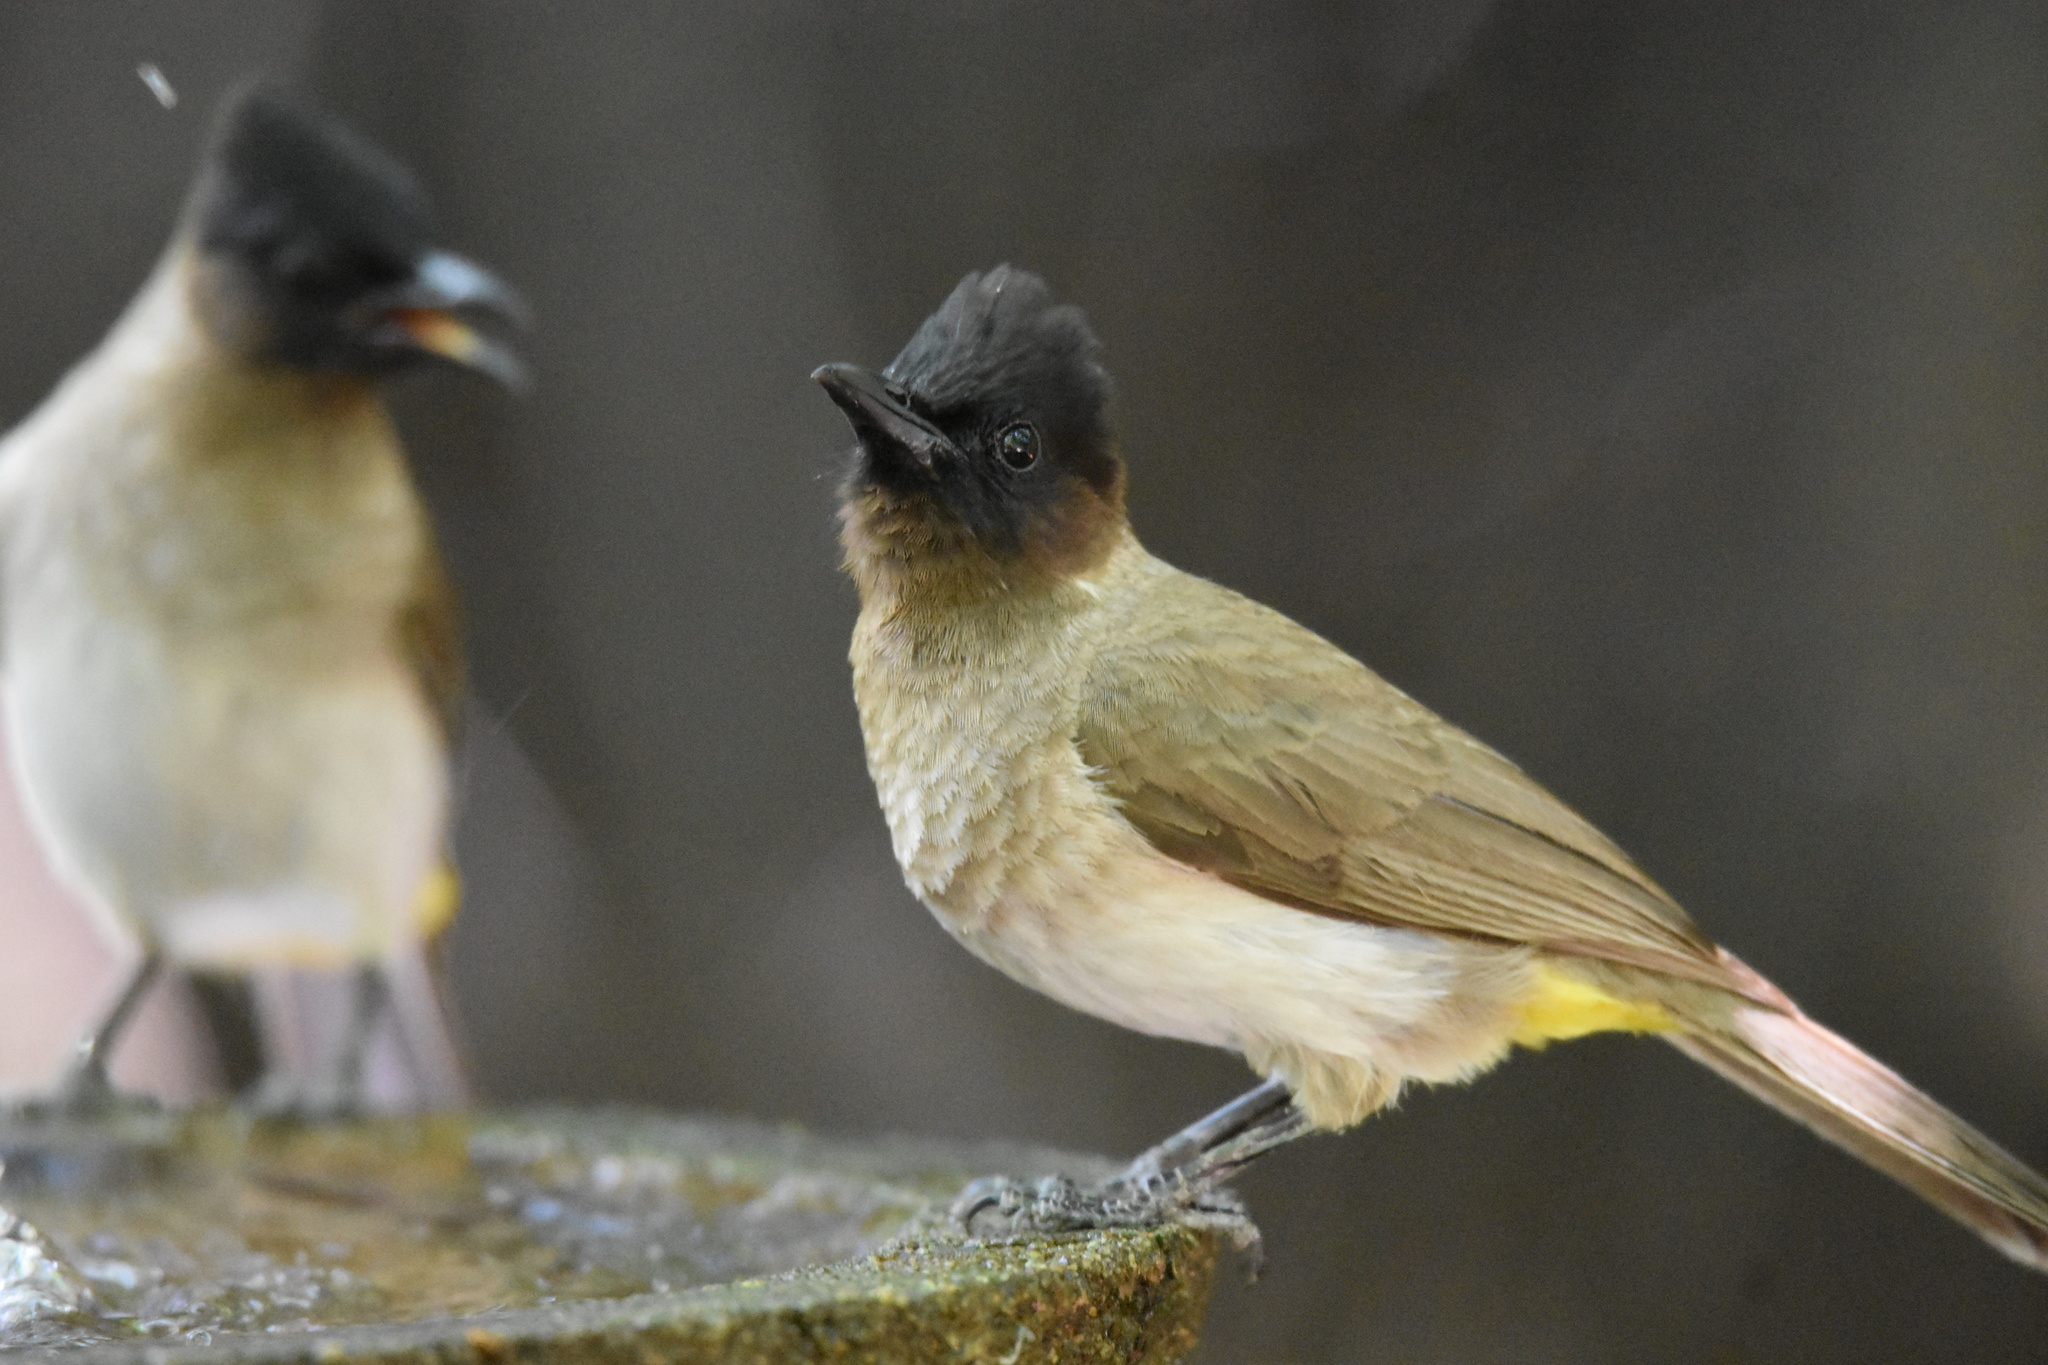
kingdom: Animalia
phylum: Chordata
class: Aves
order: Passeriformes
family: Pycnonotidae
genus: Pycnonotus
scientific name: Pycnonotus barbatus
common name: Common bulbul
